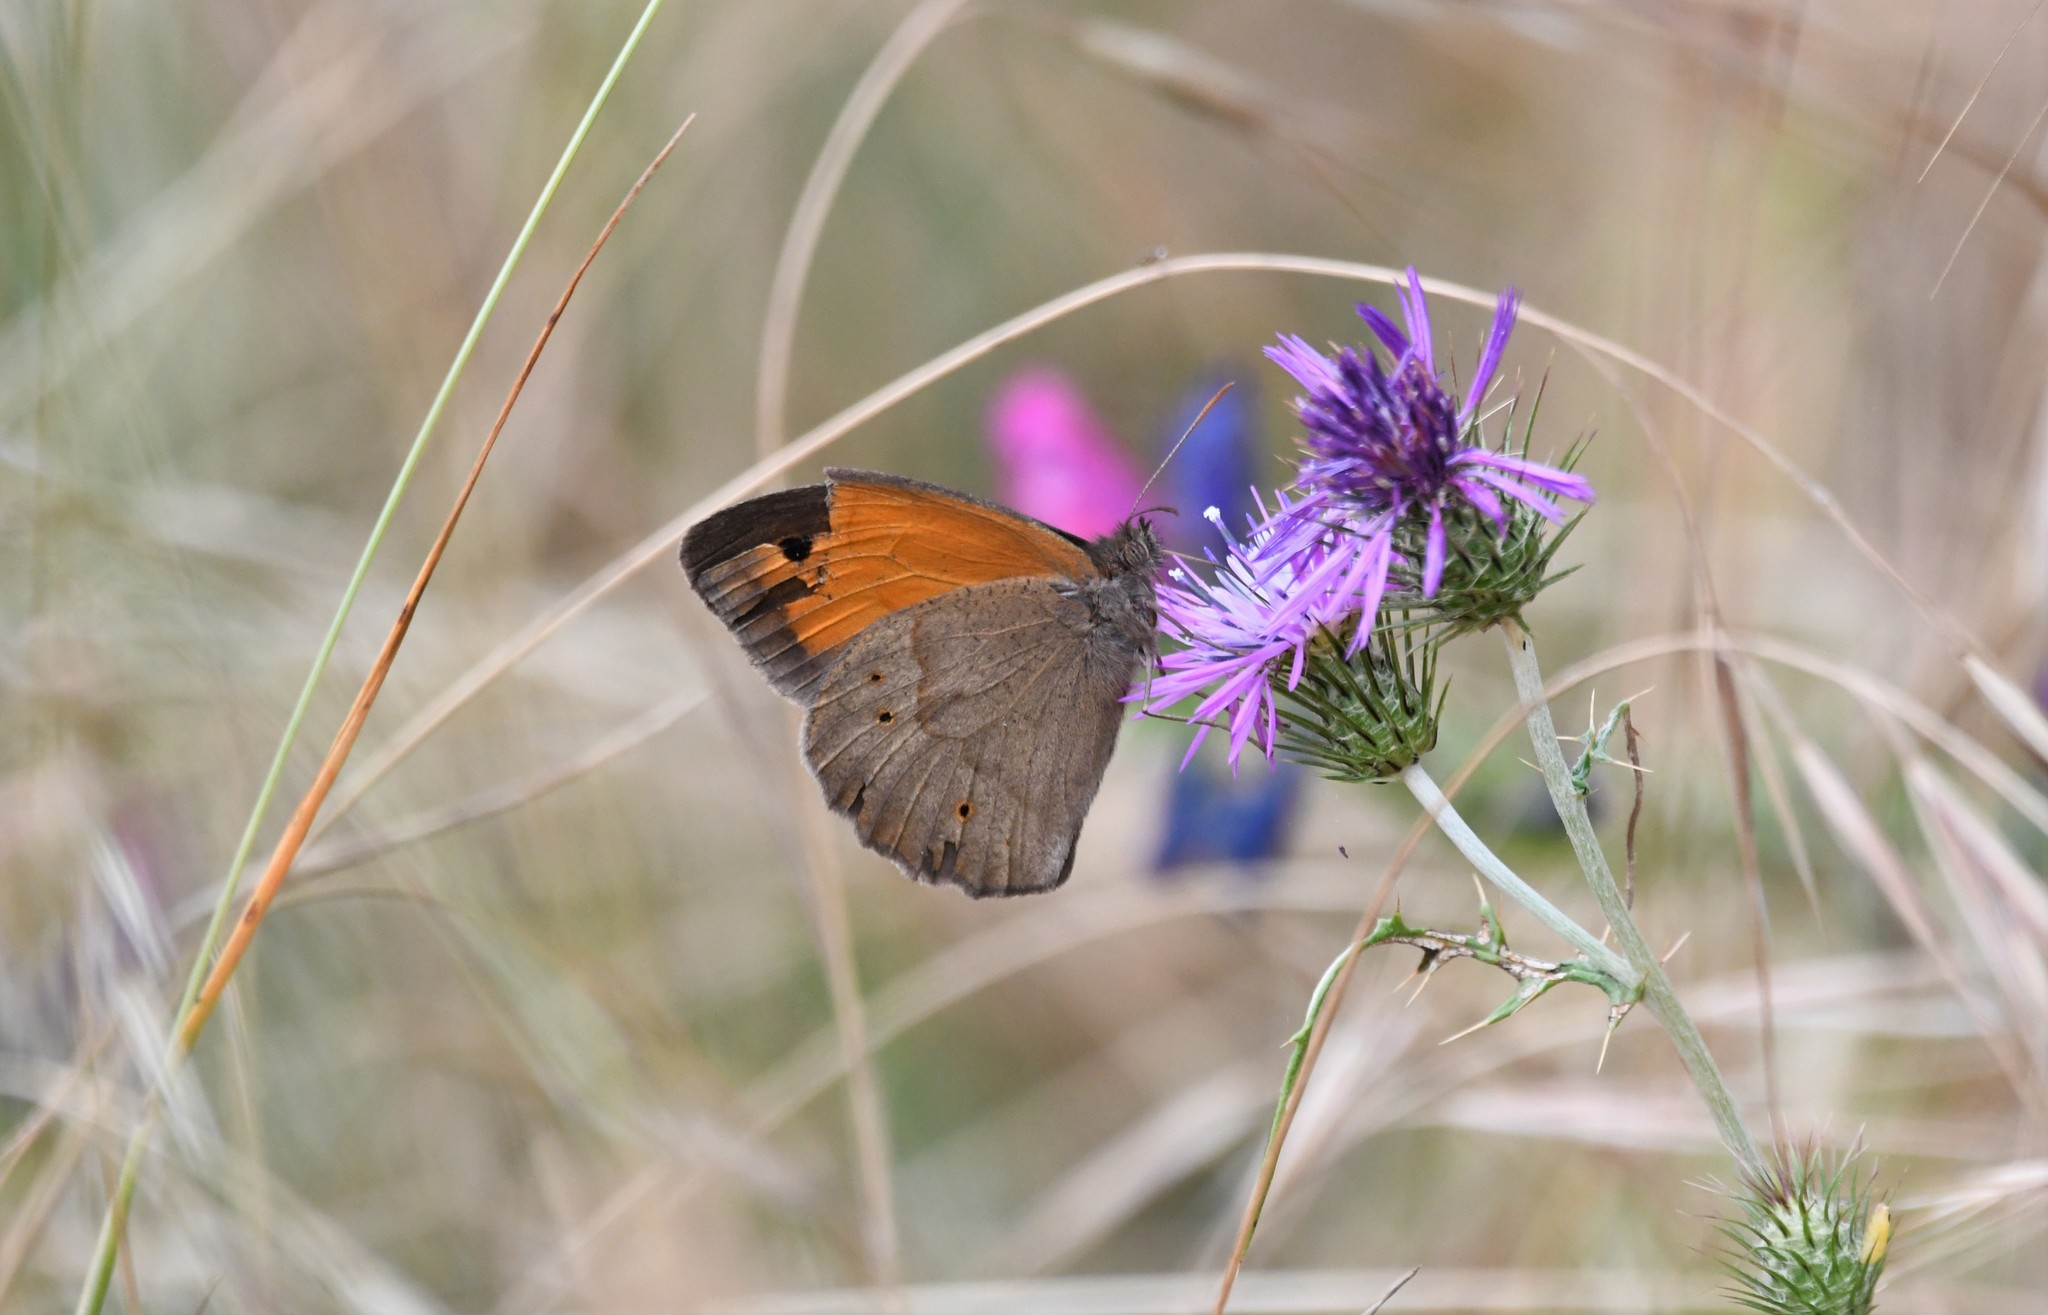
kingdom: Animalia
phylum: Arthropoda
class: Insecta
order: Lepidoptera
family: Nymphalidae
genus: Maniola
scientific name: Maniola jurtina
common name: Meadow brown
